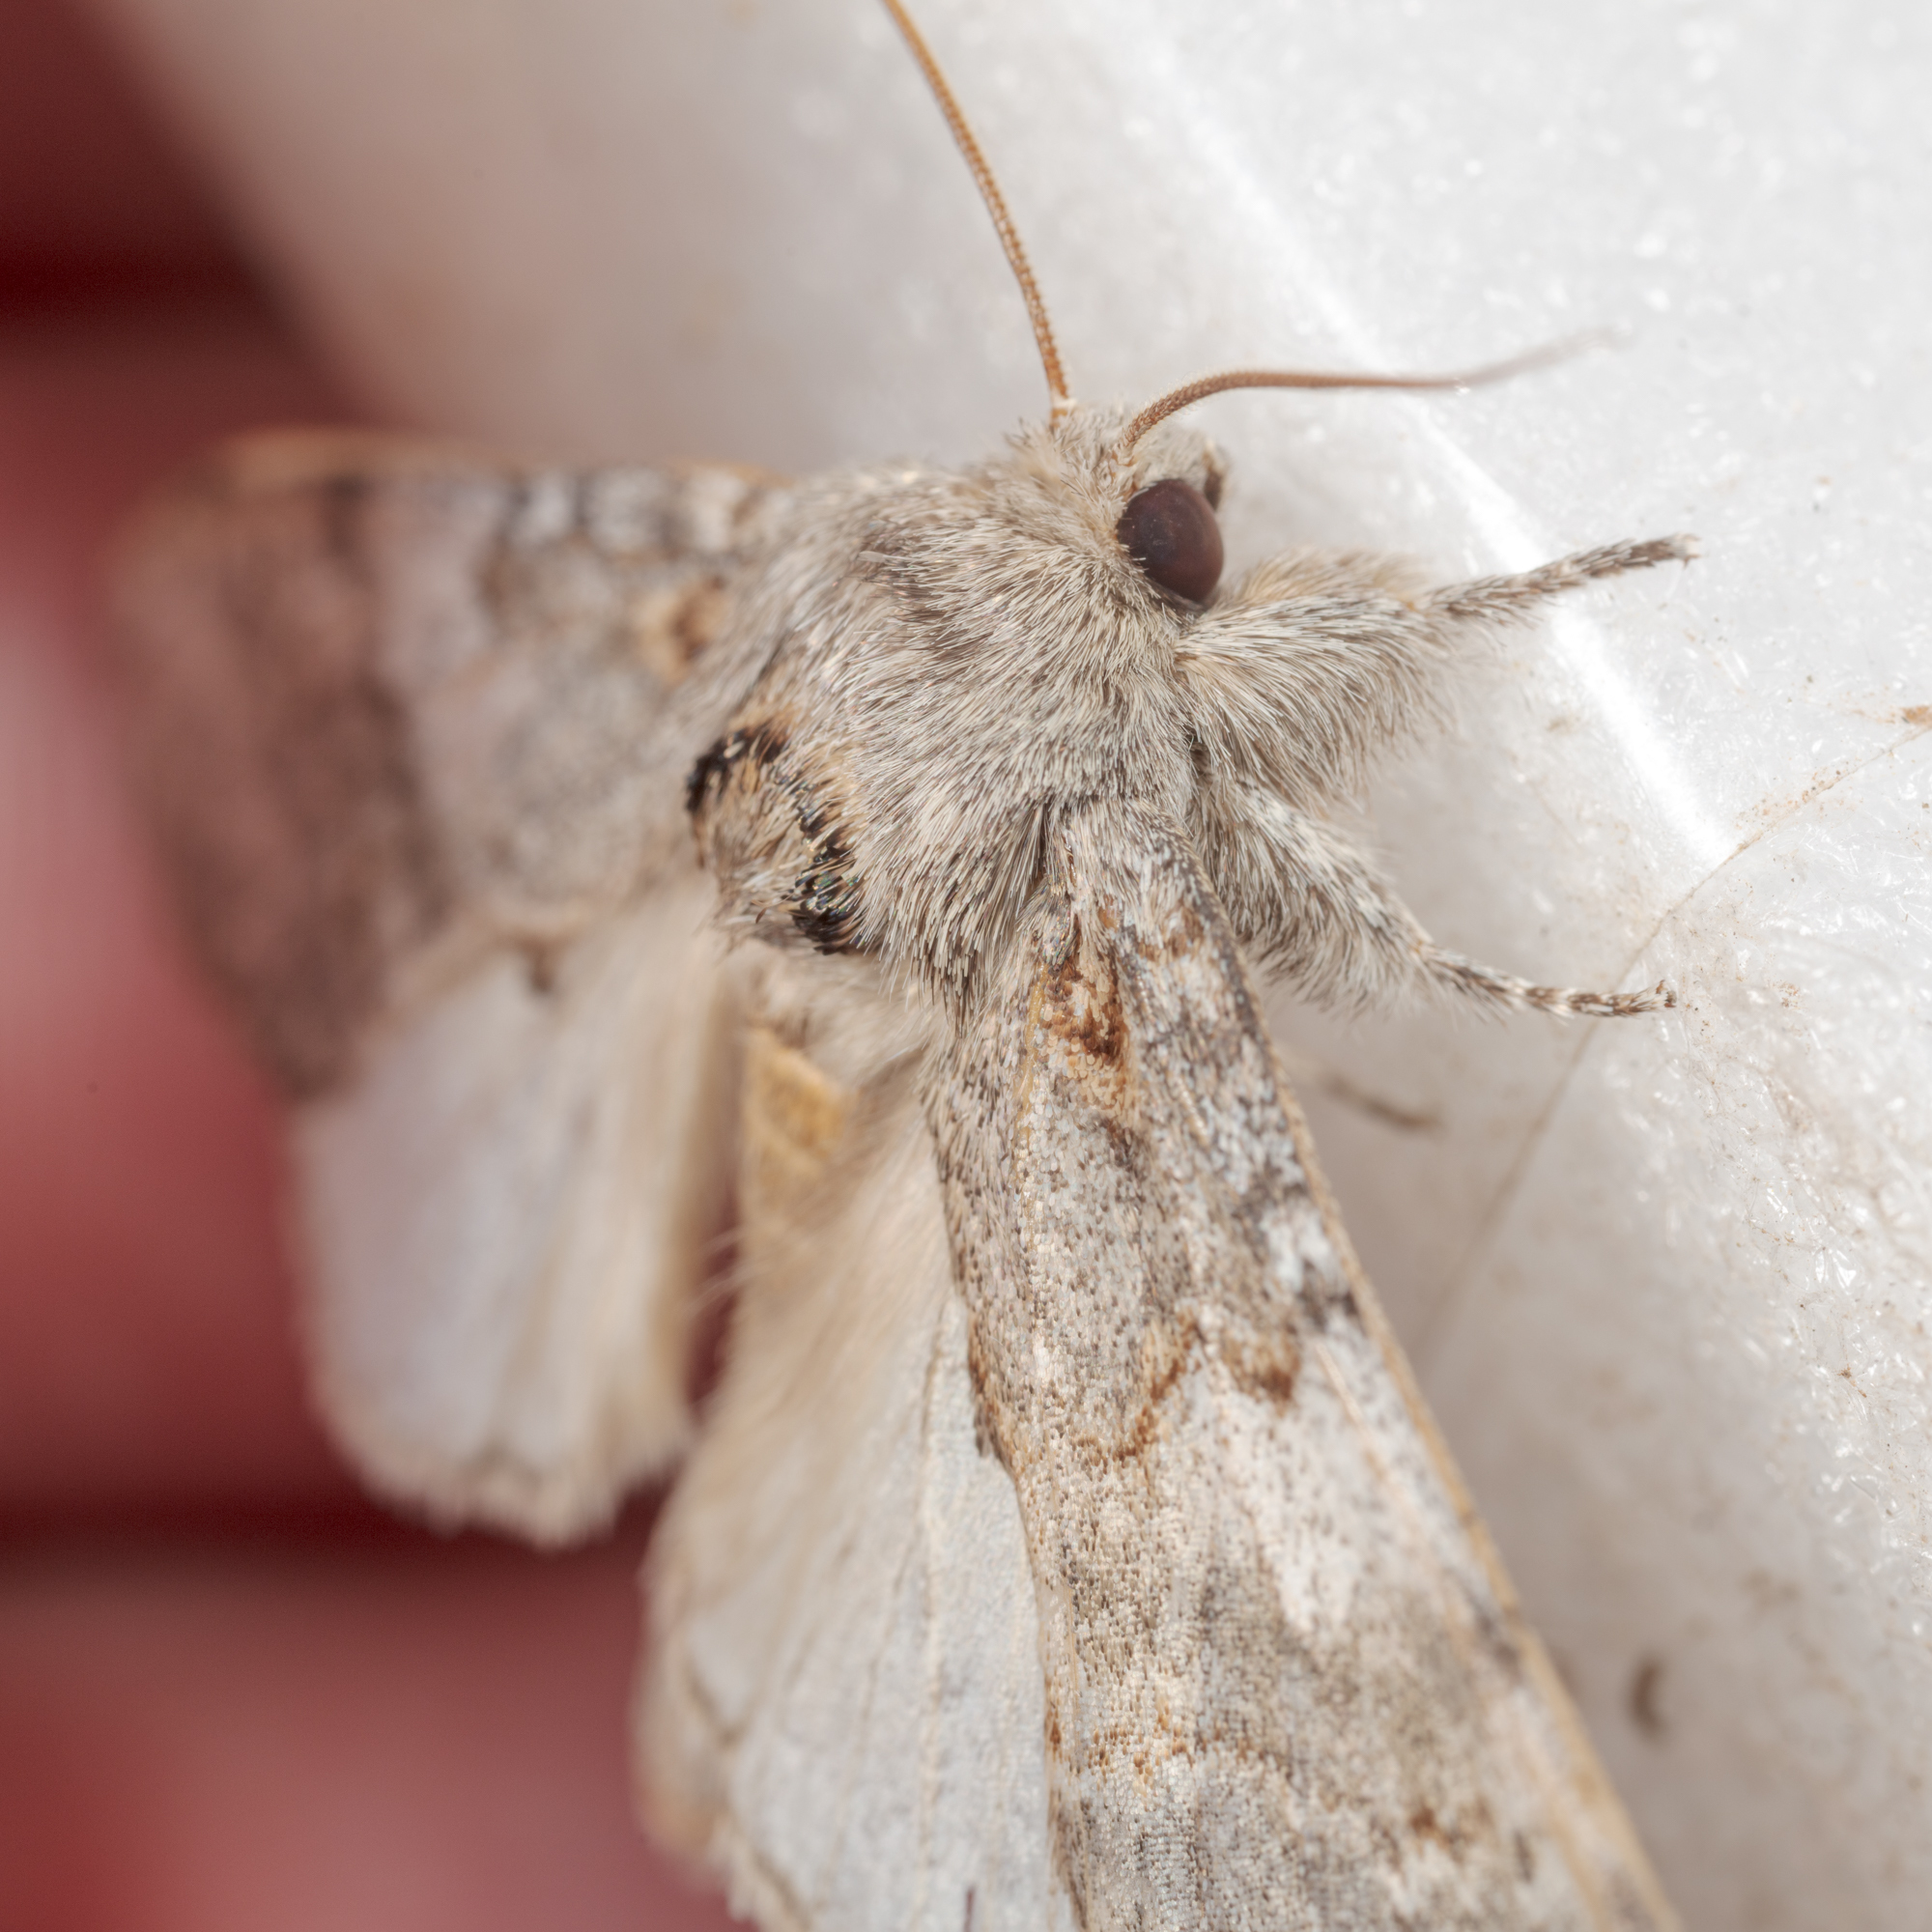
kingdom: Animalia
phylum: Arthropoda
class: Insecta
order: Lepidoptera
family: Notodontidae
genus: Peridea
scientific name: Peridea angulosa
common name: Angulose prominent
